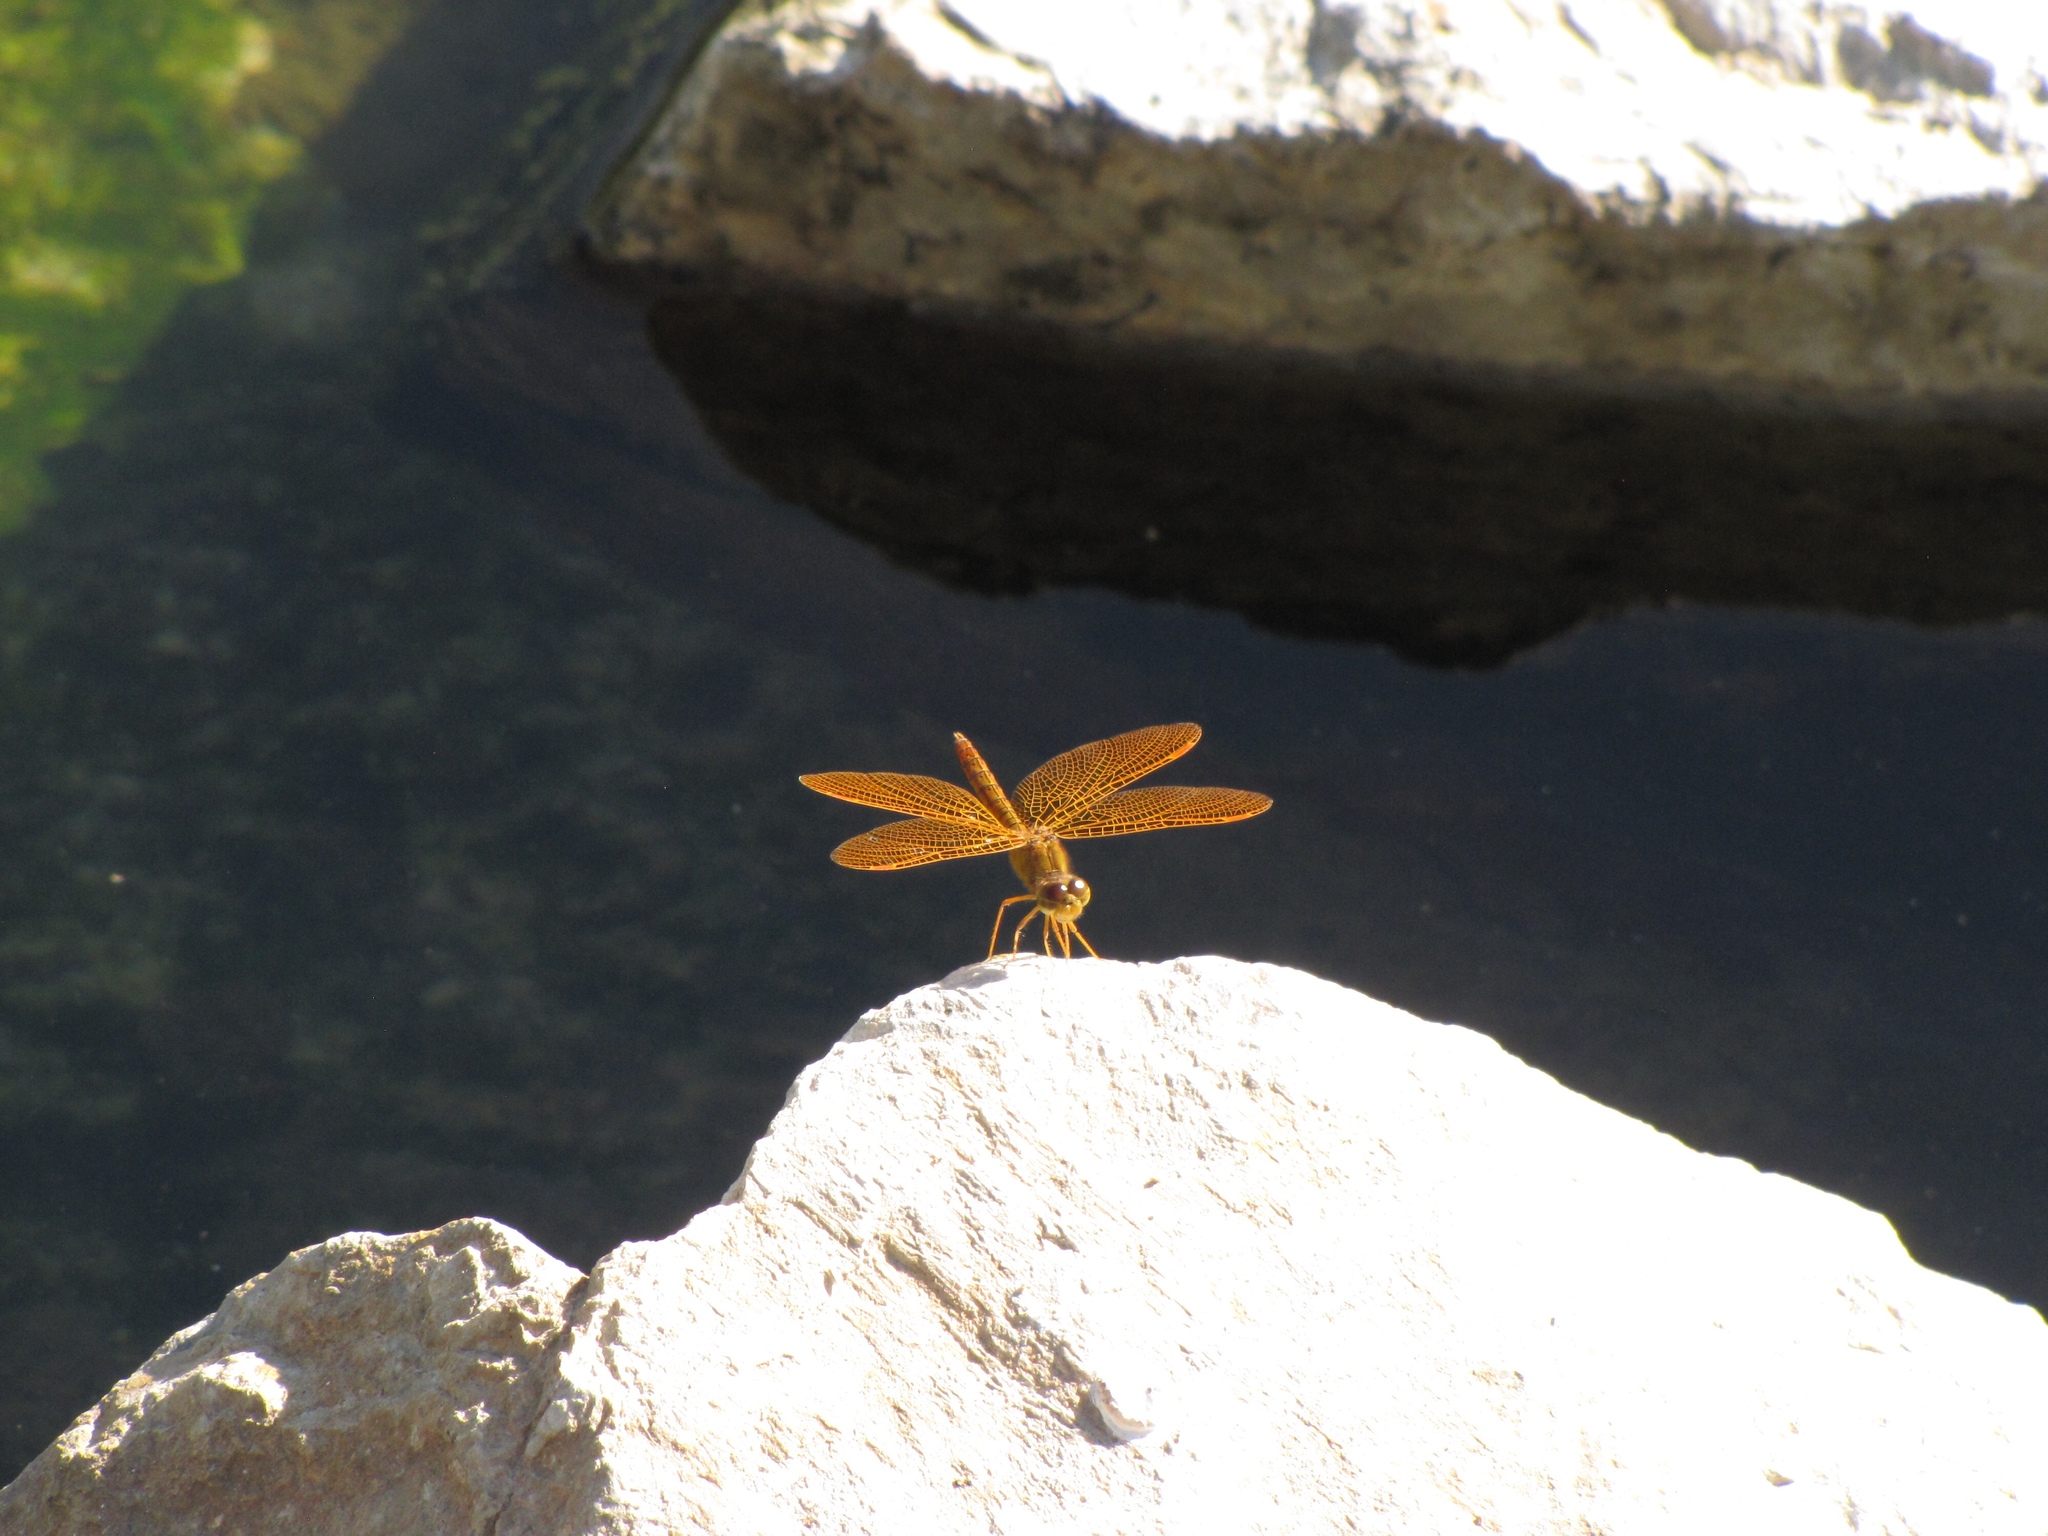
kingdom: Animalia
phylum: Arthropoda
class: Insecta
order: Odonata
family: Libellulidae
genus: Perithemis
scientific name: Perithemis intensa
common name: Mexican amberwing
